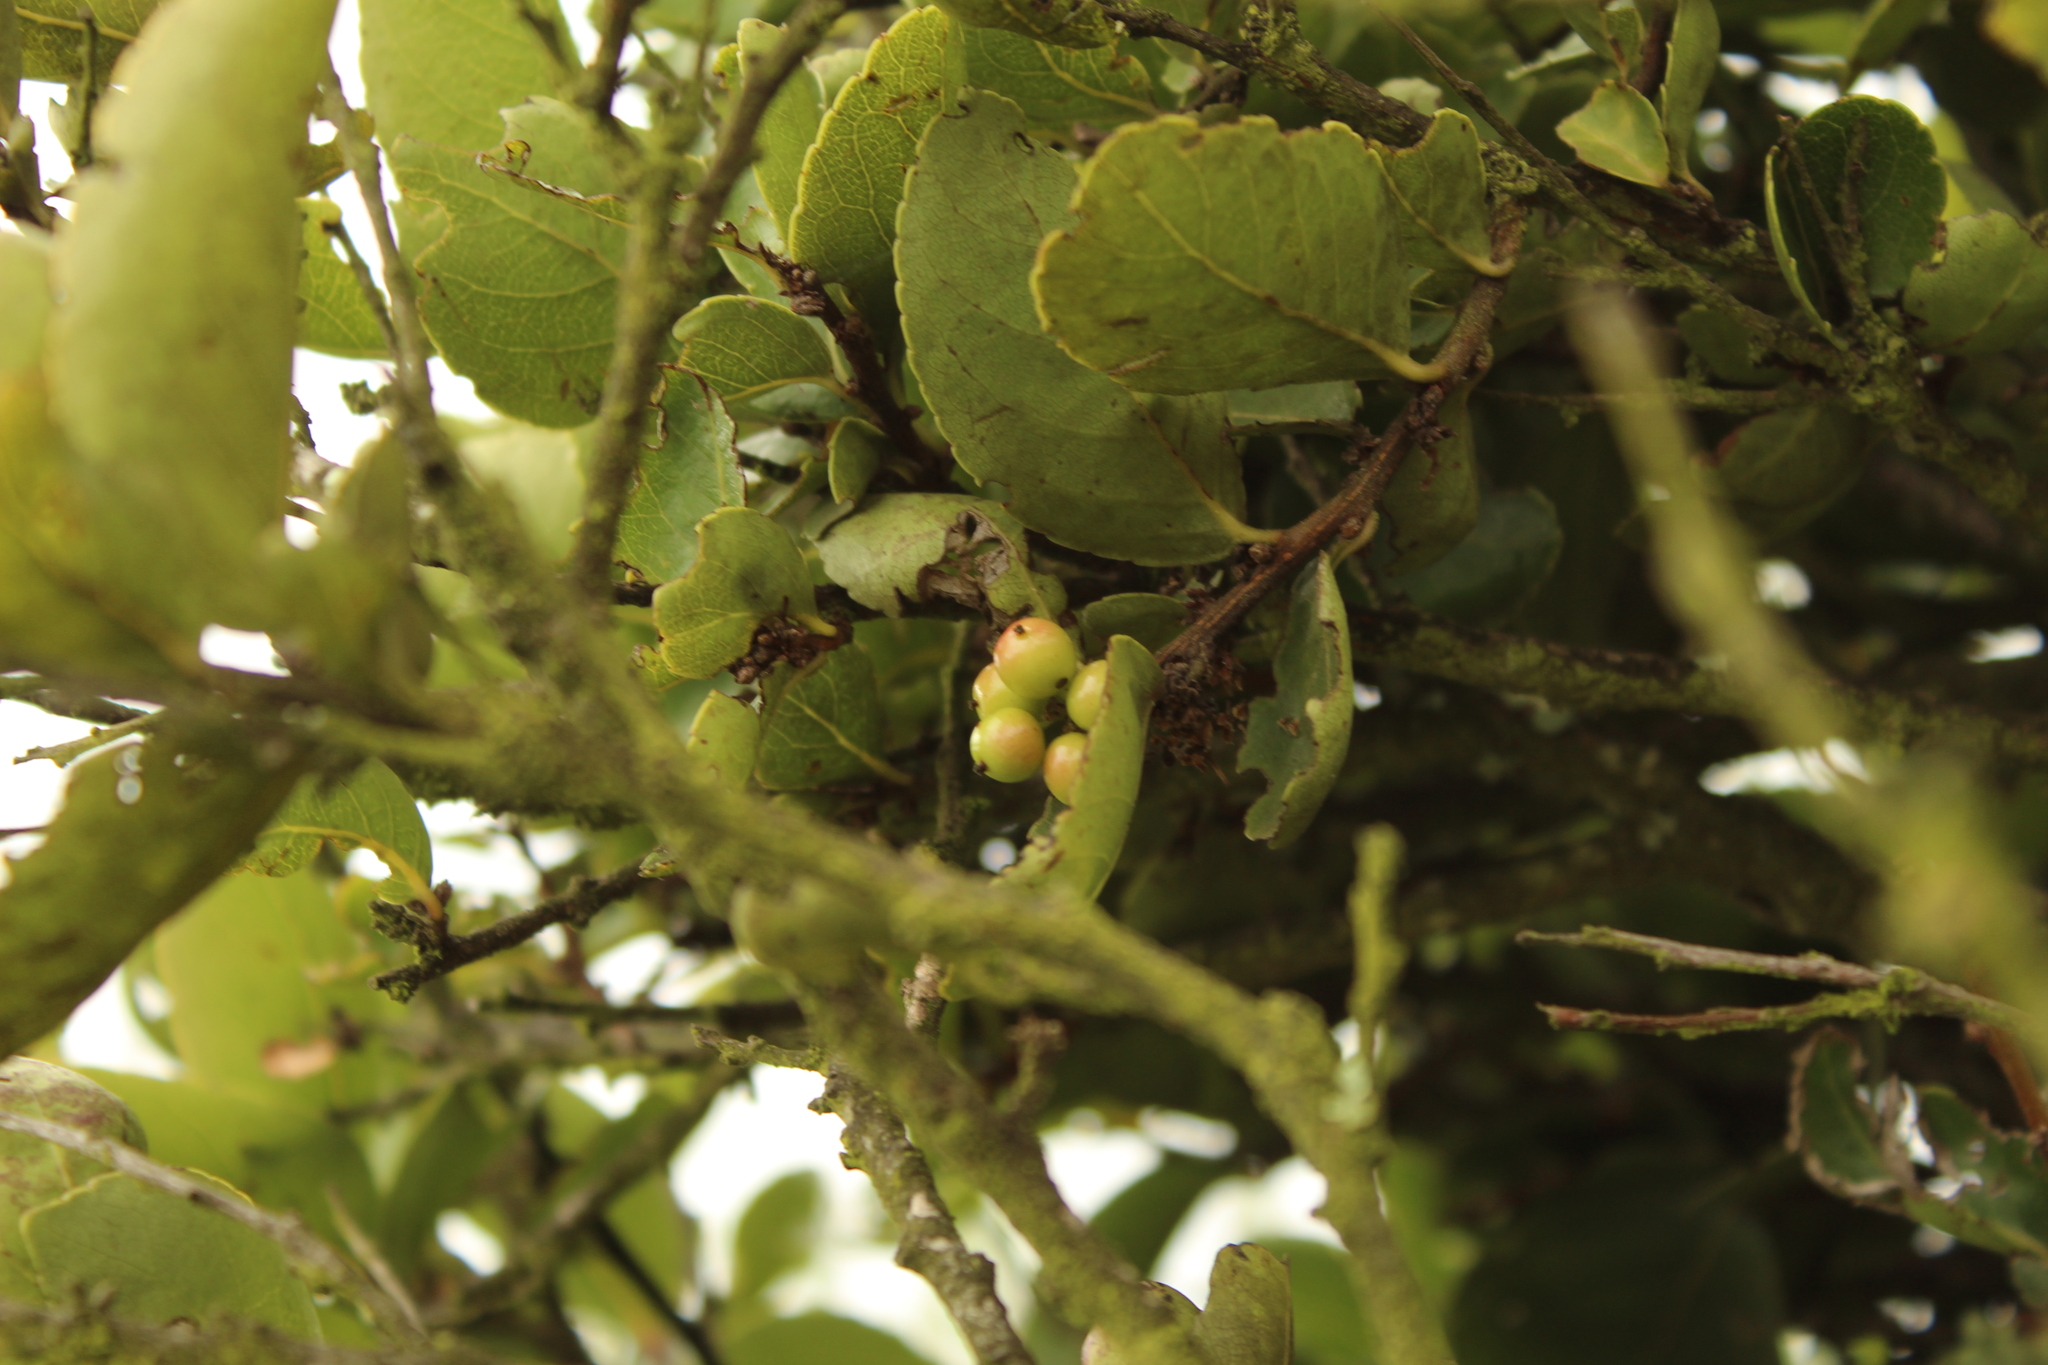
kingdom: Plantae
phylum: Tracheophyta
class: Magnoliopsida
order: Malpighiales
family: Salicaceae
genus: Xylosma
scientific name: Xylosma spiculifera
